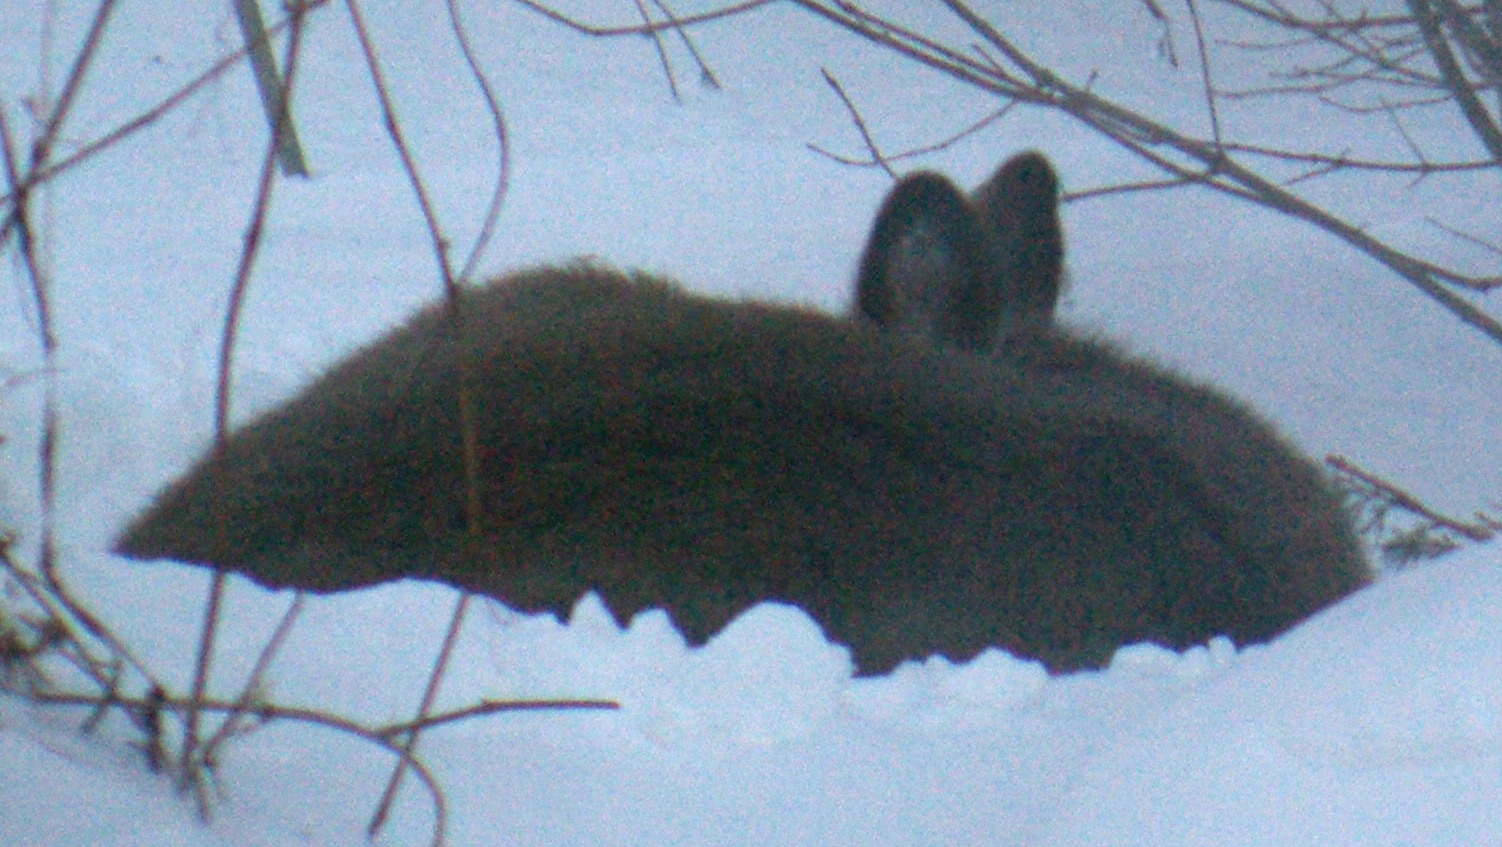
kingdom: Animalia
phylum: Chordata
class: Mammalia
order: Artiodactyla
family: Cervidae
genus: Odocoileus
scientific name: Odocoileus virginianus
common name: White-tailed deer
